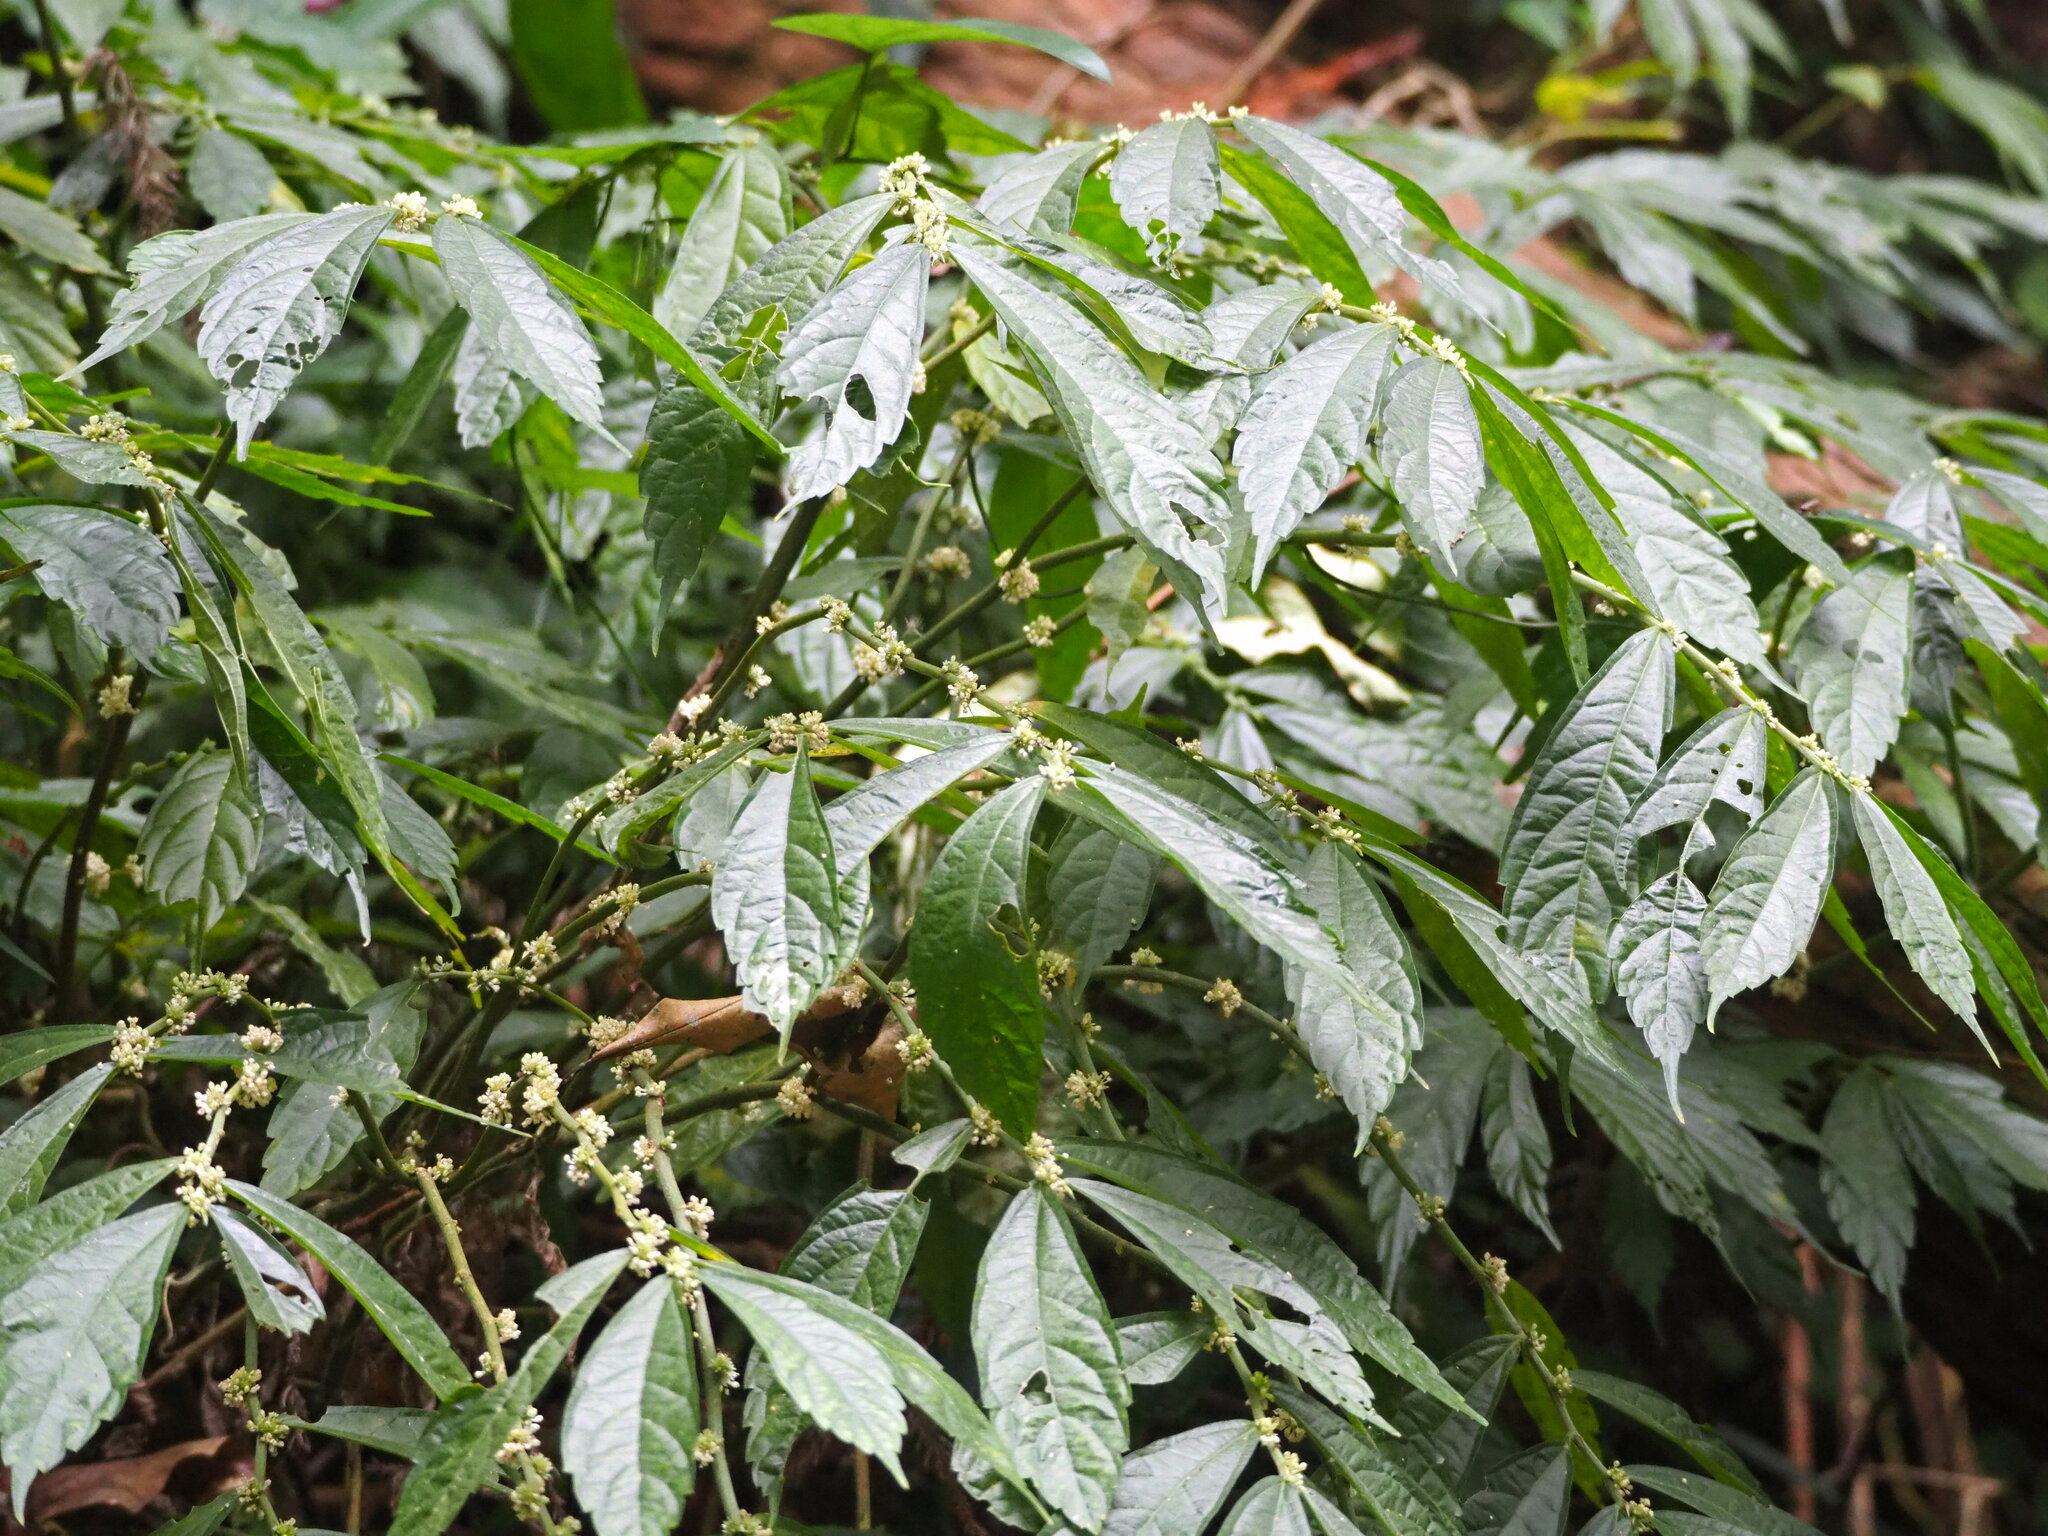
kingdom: Plantae
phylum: Tracheophyta
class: Magnoliopsida
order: Rosales
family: Urticaceae
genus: Elatostema
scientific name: Elatostema lineolatum
